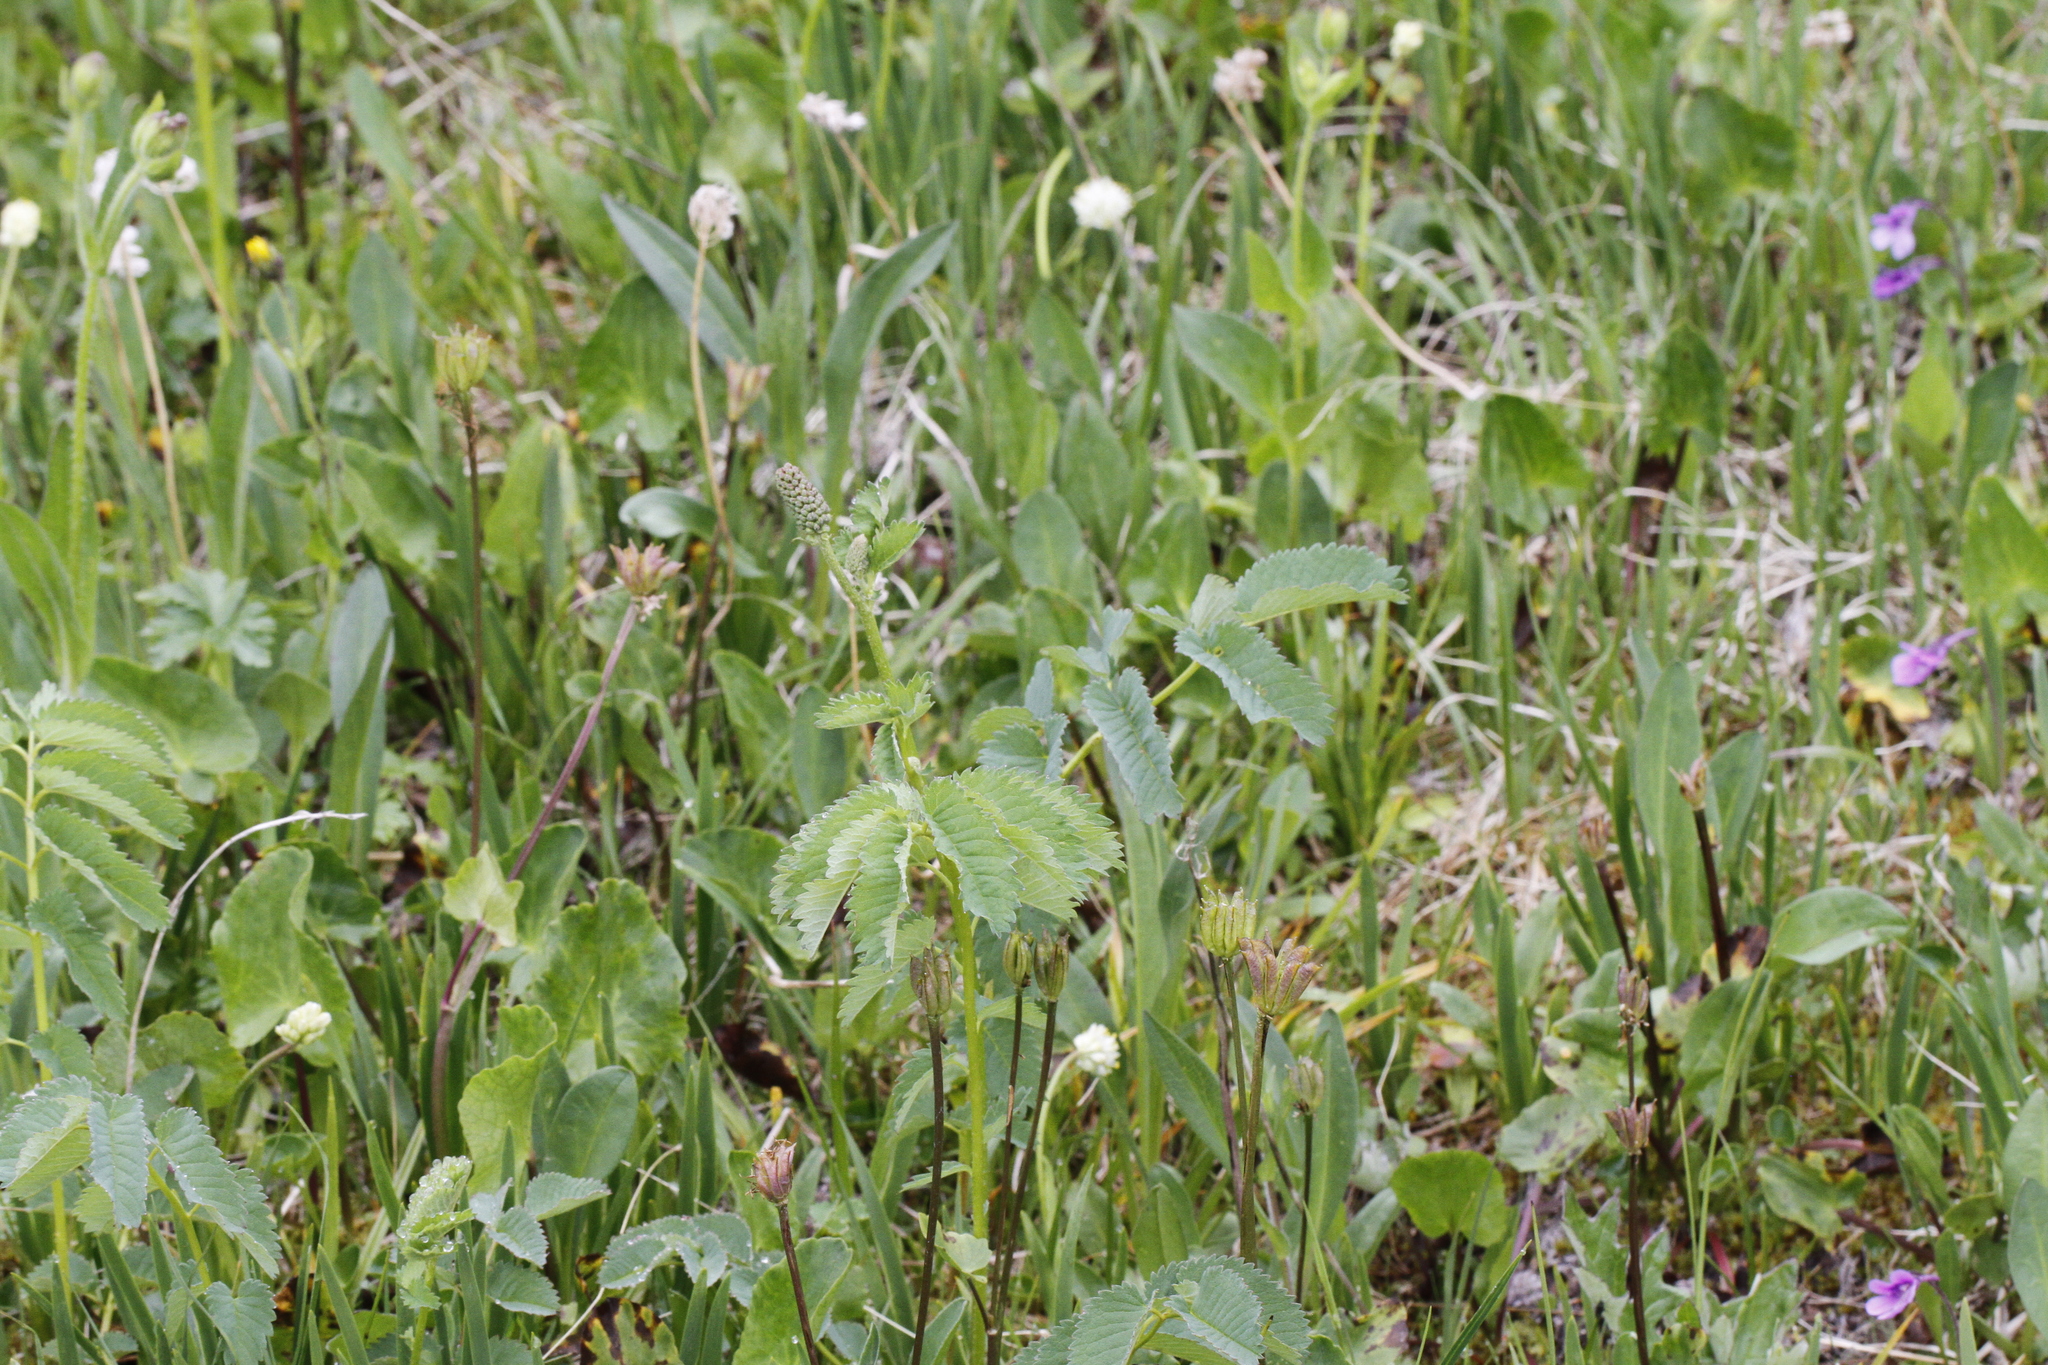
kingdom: Plantae
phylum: Tracheophyta
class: Magnoliopsida
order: Rosales
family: Rosaceae
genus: Sanguisorba
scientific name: Sanguisorba stipulata
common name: Sitka burnet
